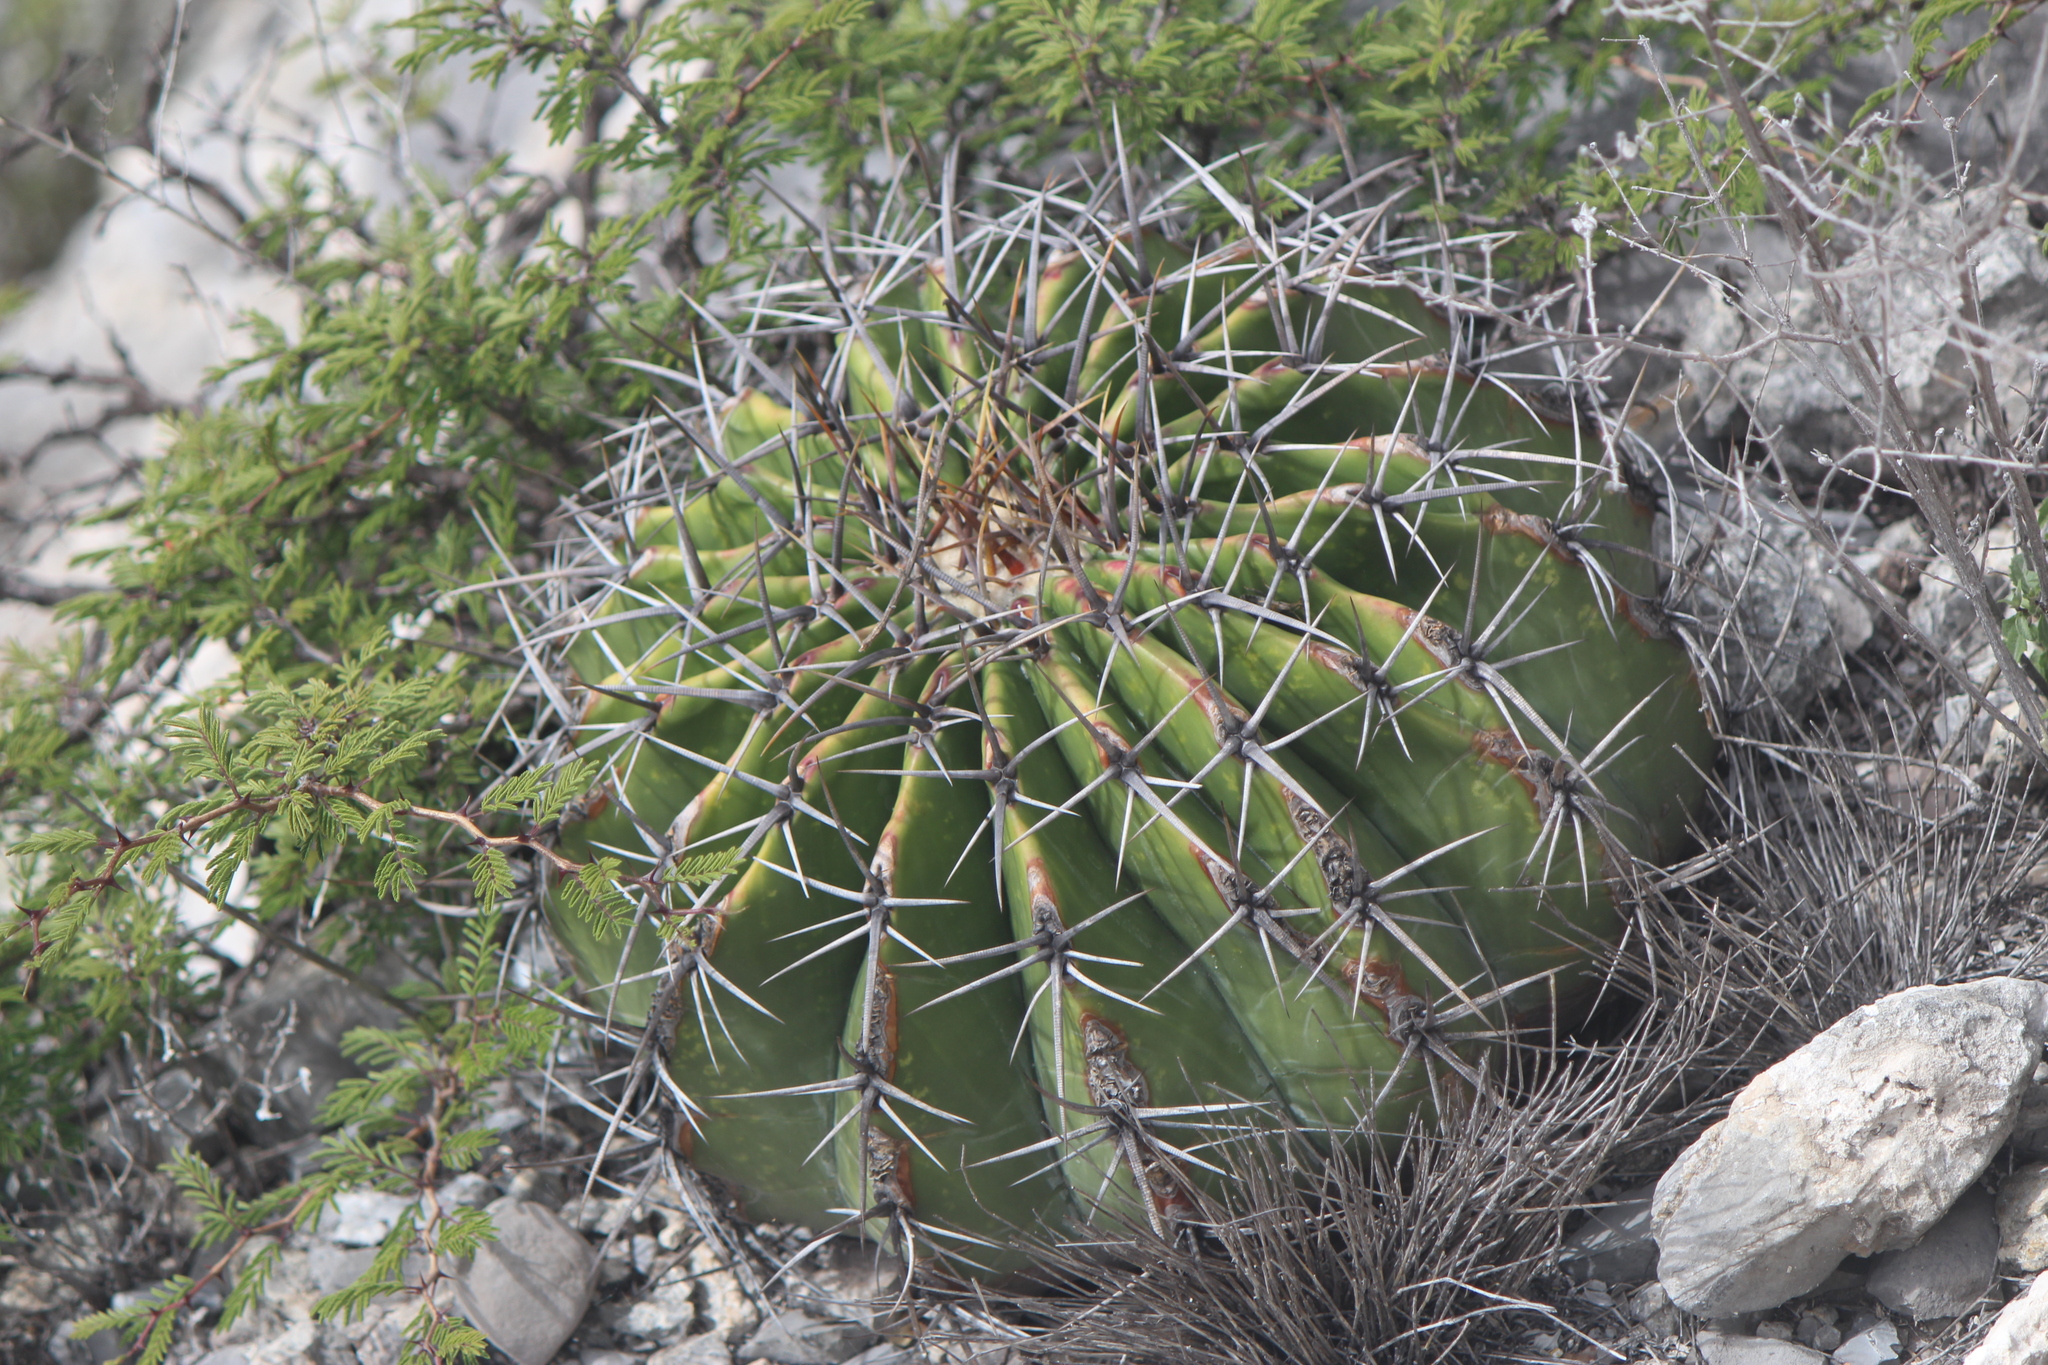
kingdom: Plantae
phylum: Tracheophyta
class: Magnoliopsida
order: Caryophyllales
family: Cactaceae
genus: Echinocactus
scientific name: Echinocactus platyacanthus
